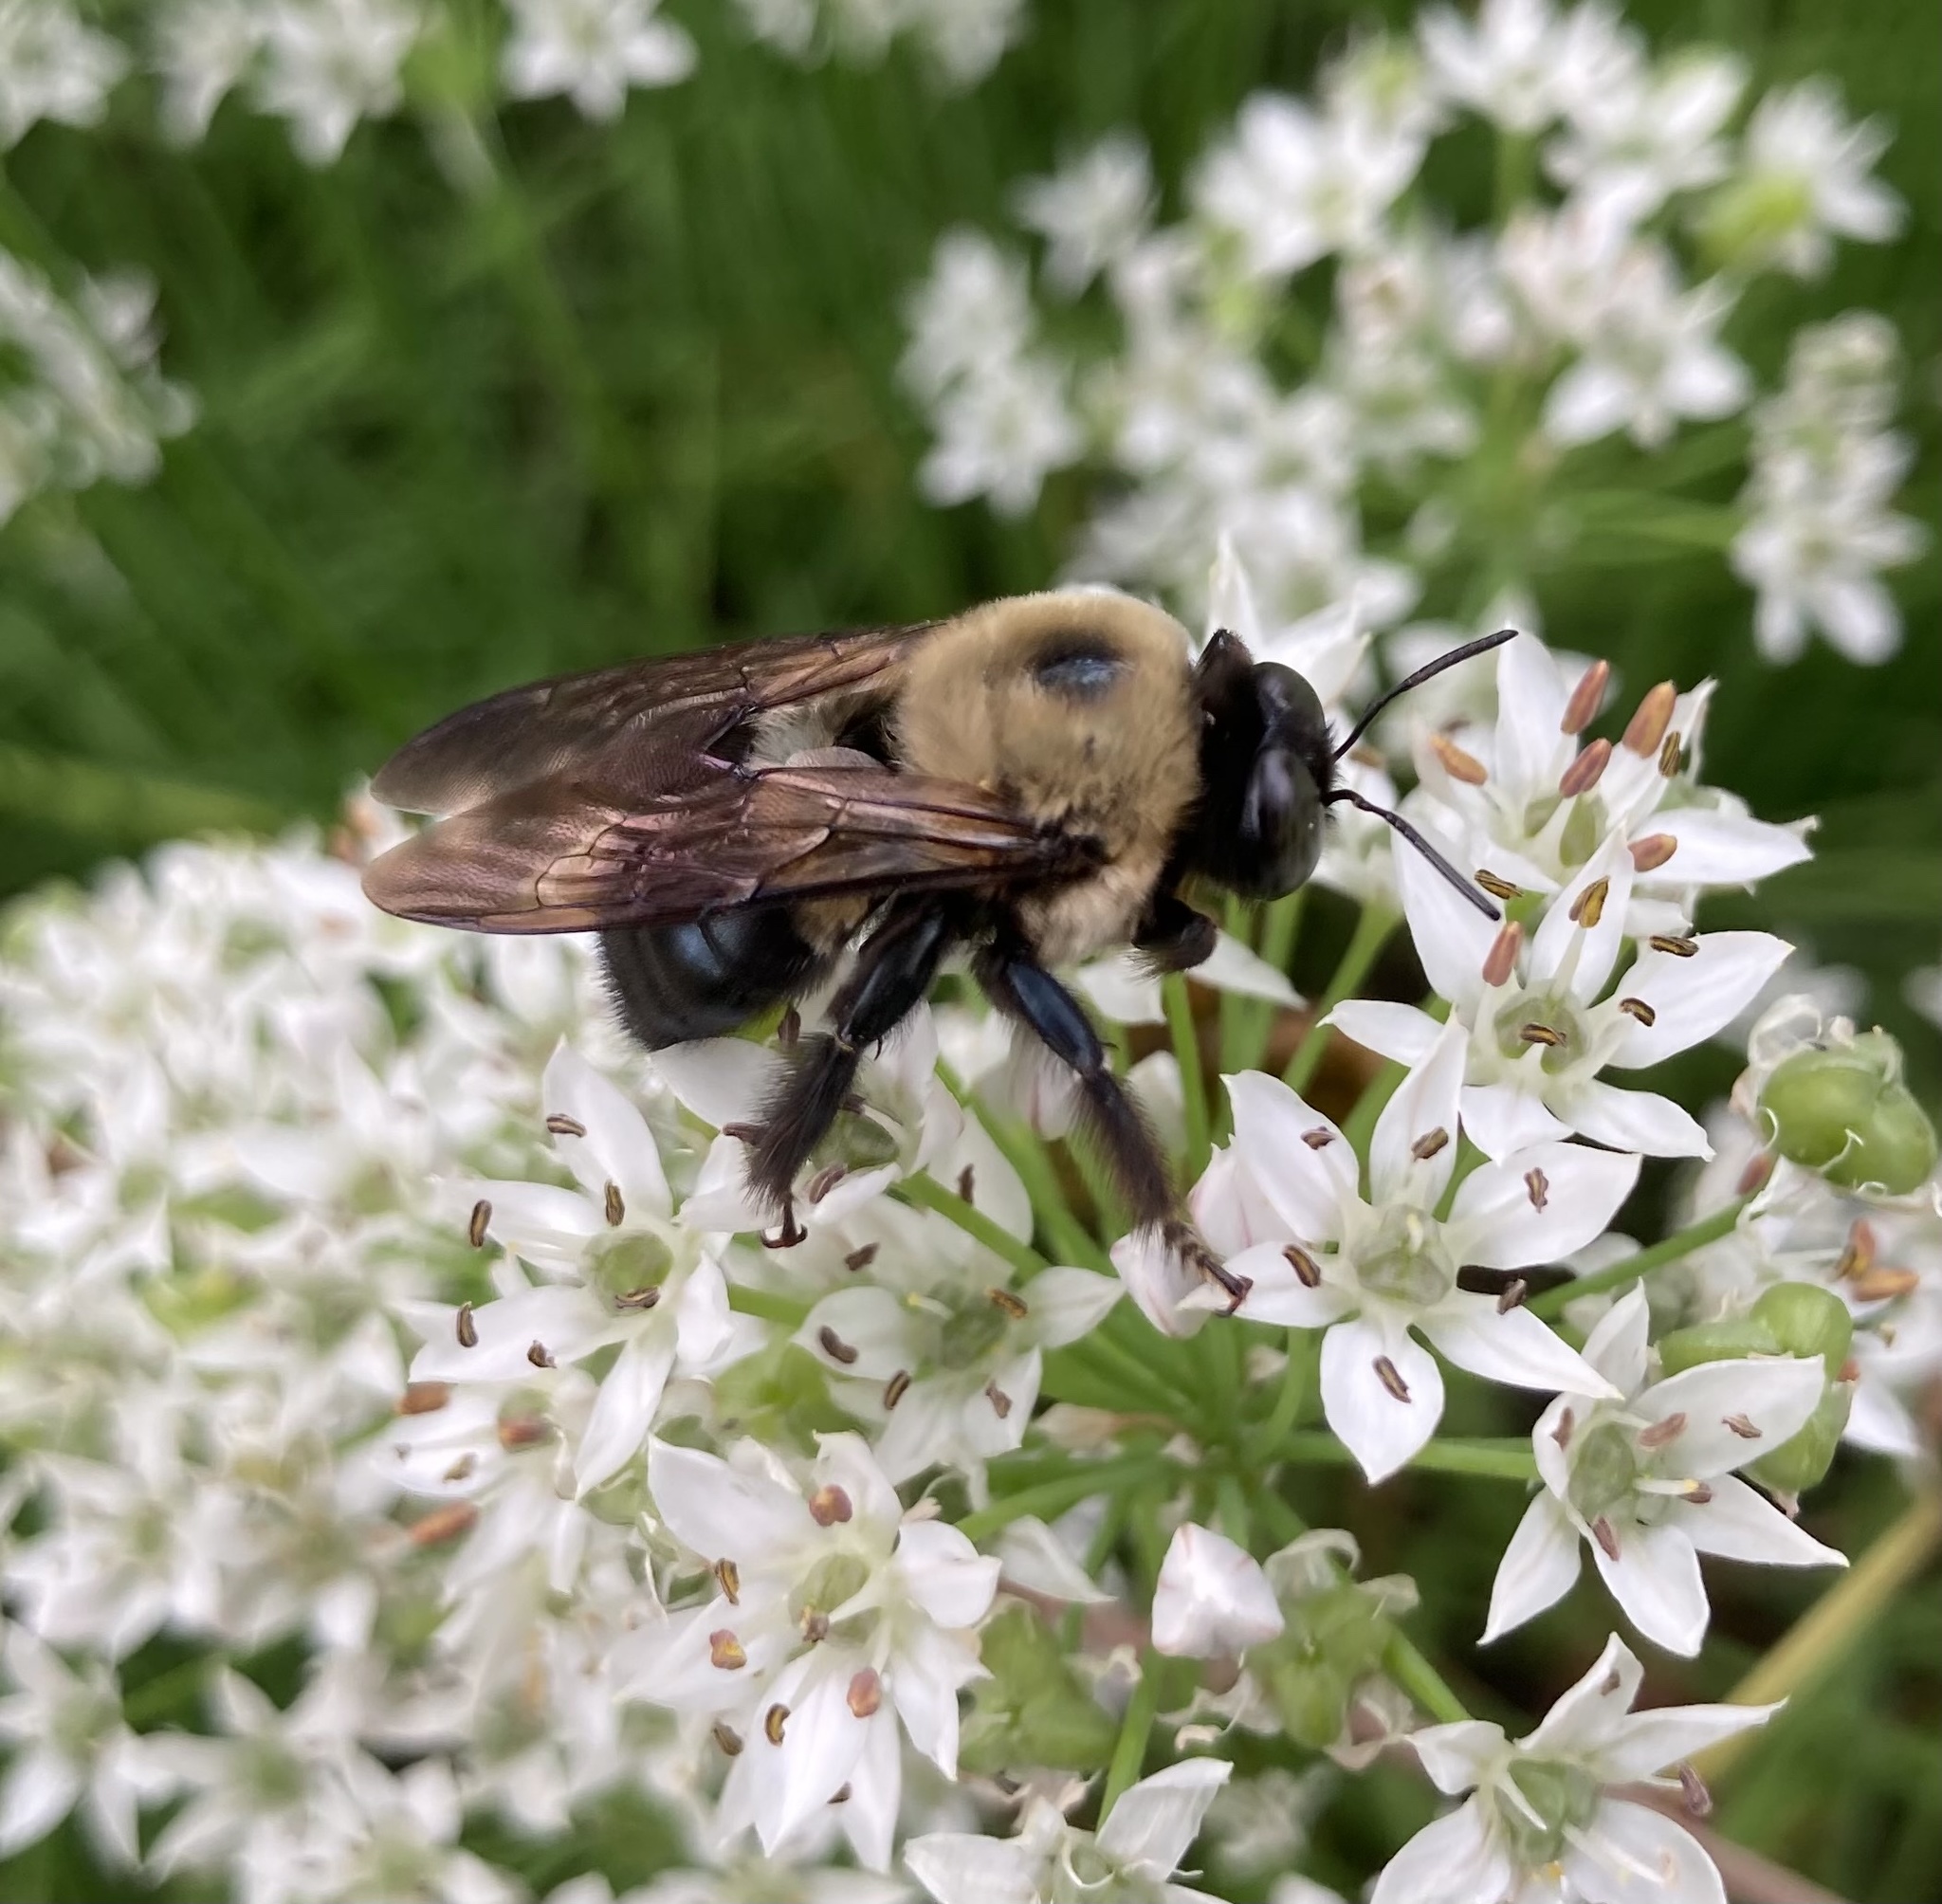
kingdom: Animalia
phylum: Arthropoda
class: Insecta
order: Hymenoptera
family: Apidae
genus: Xylocopa
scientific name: Xylocopa virginica
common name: Carpenter bee
